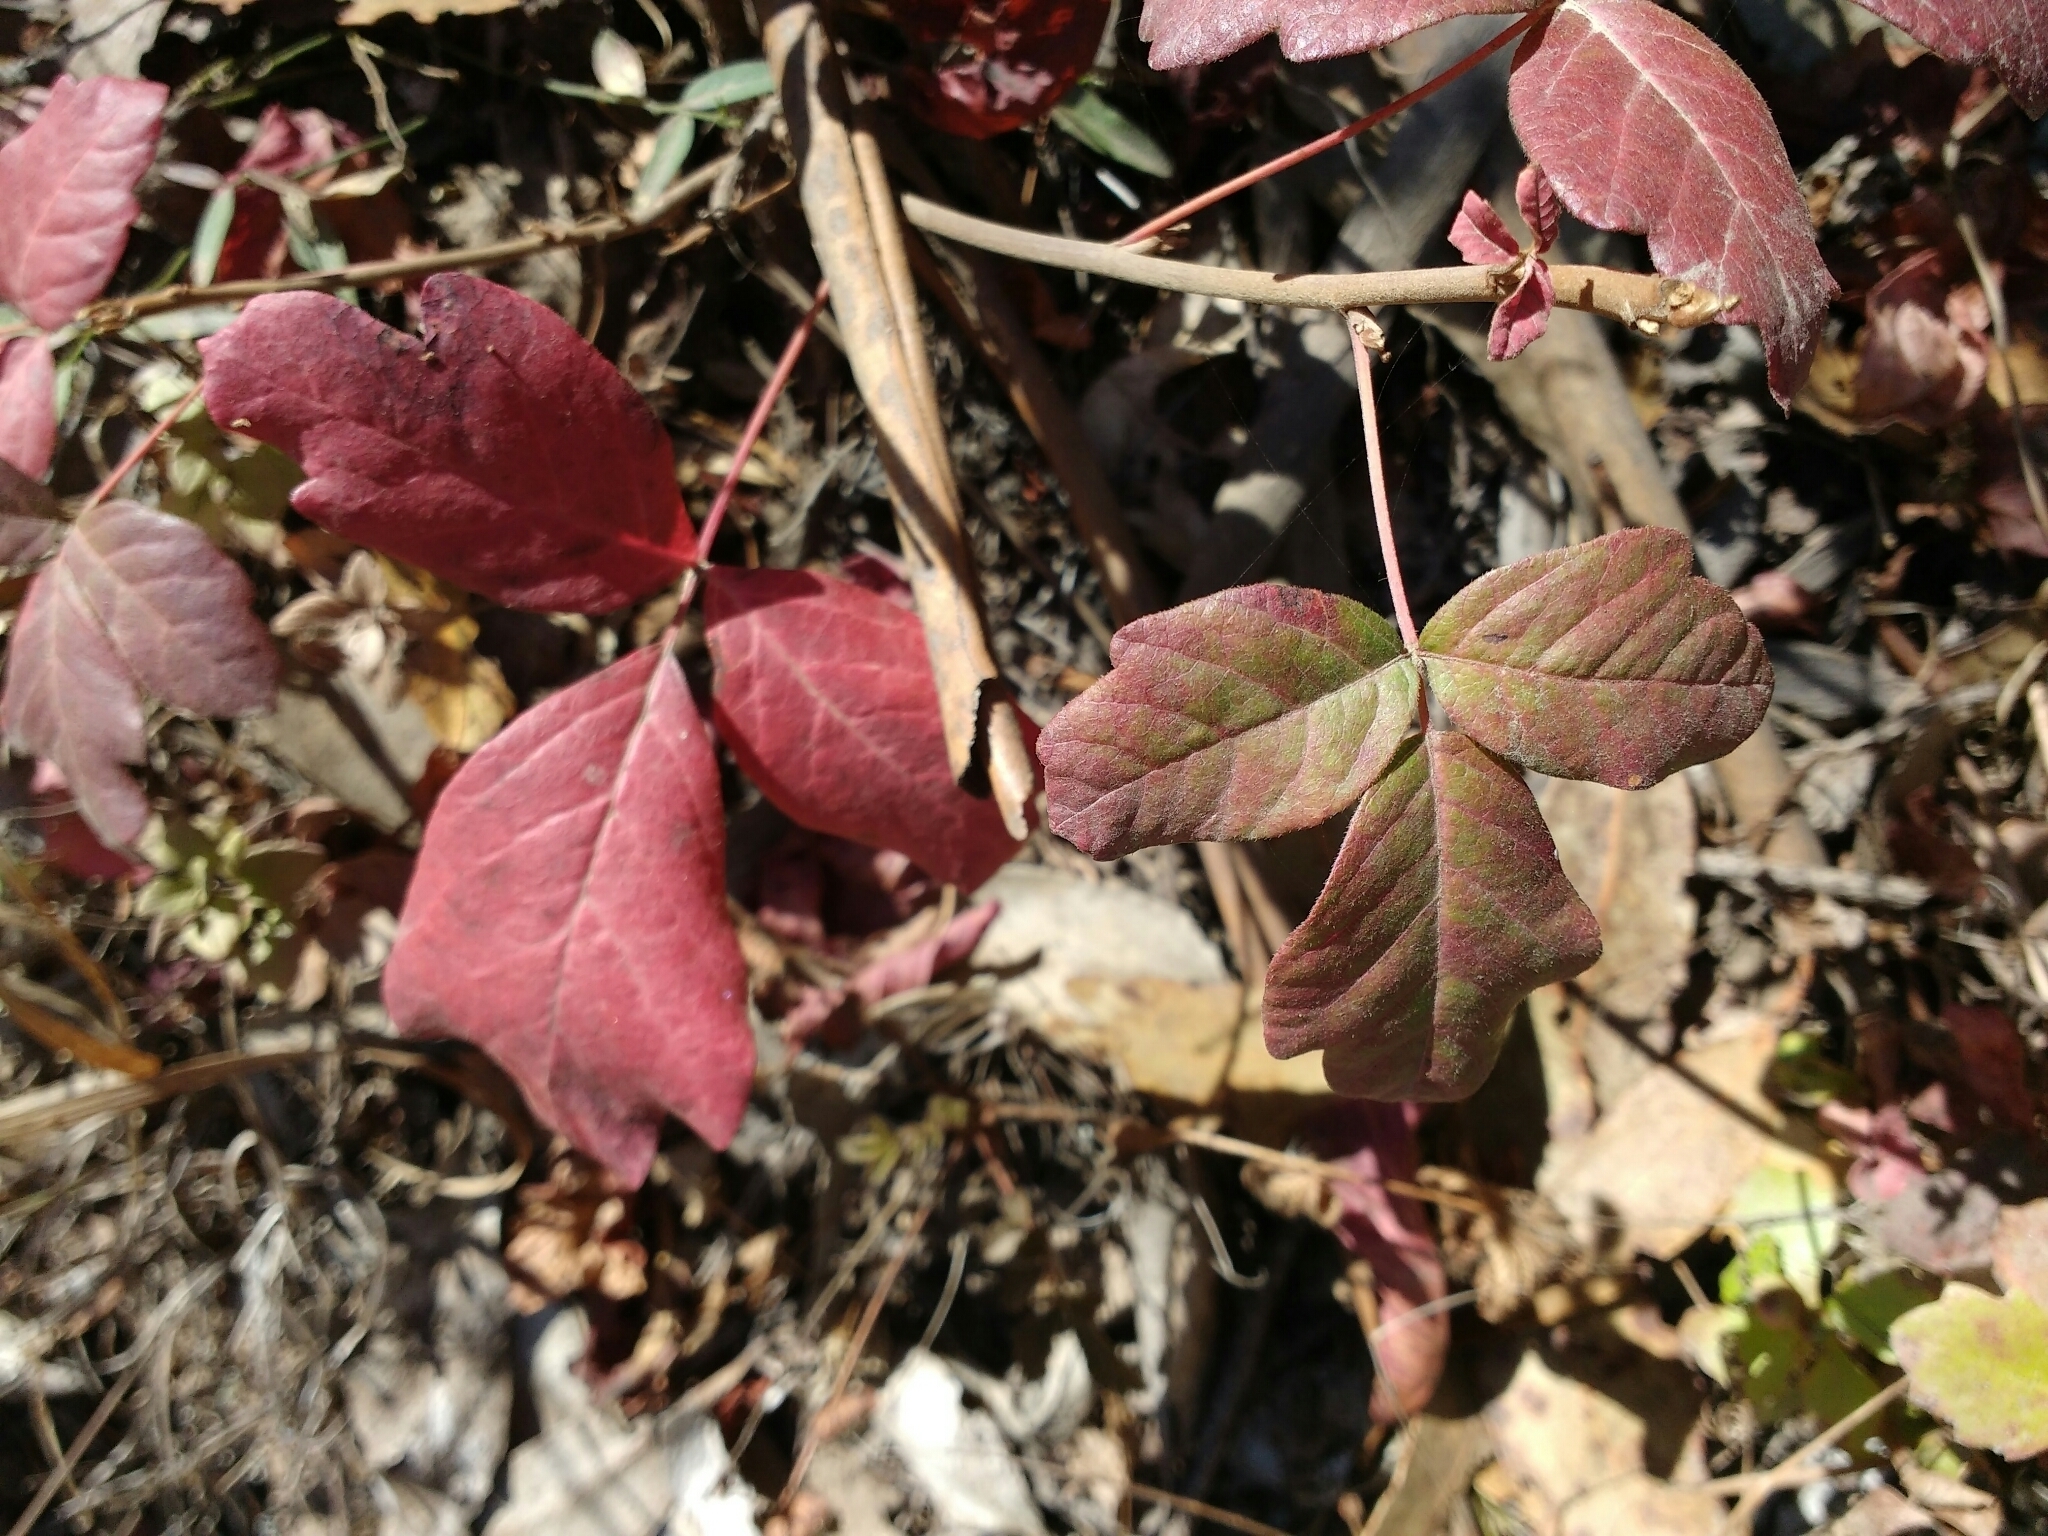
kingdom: Plantae
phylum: Tracheophyta
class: Magnoliopsida
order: Sapindales
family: Anacardiaceae
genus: Toxicodendron
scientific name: Toxicodendron diversilobum
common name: Pacific poison-oak
